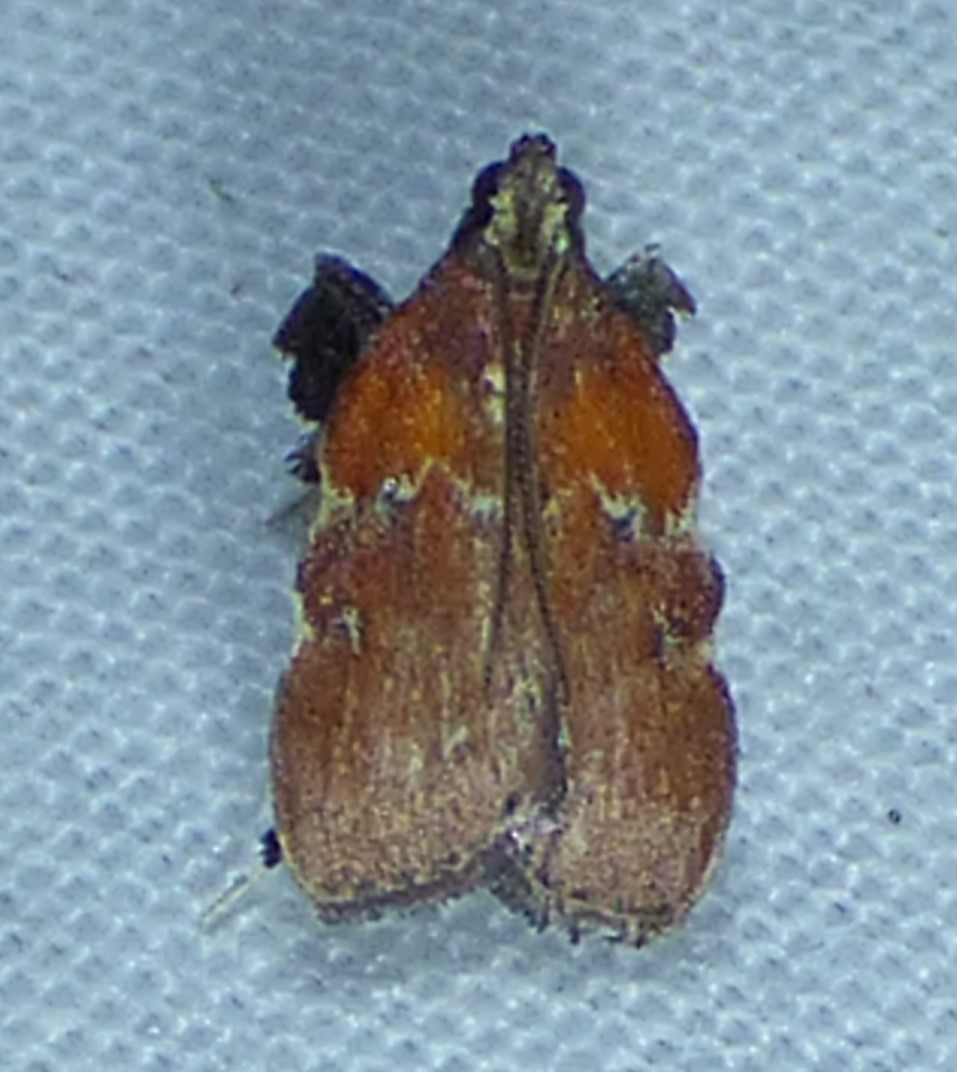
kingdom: Animalia
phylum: Arthropoda
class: Insecta
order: Lepidoptera
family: Pyralidae
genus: Galasa
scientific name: Galasa nigrinodis
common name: Boxwood leaftier moth
